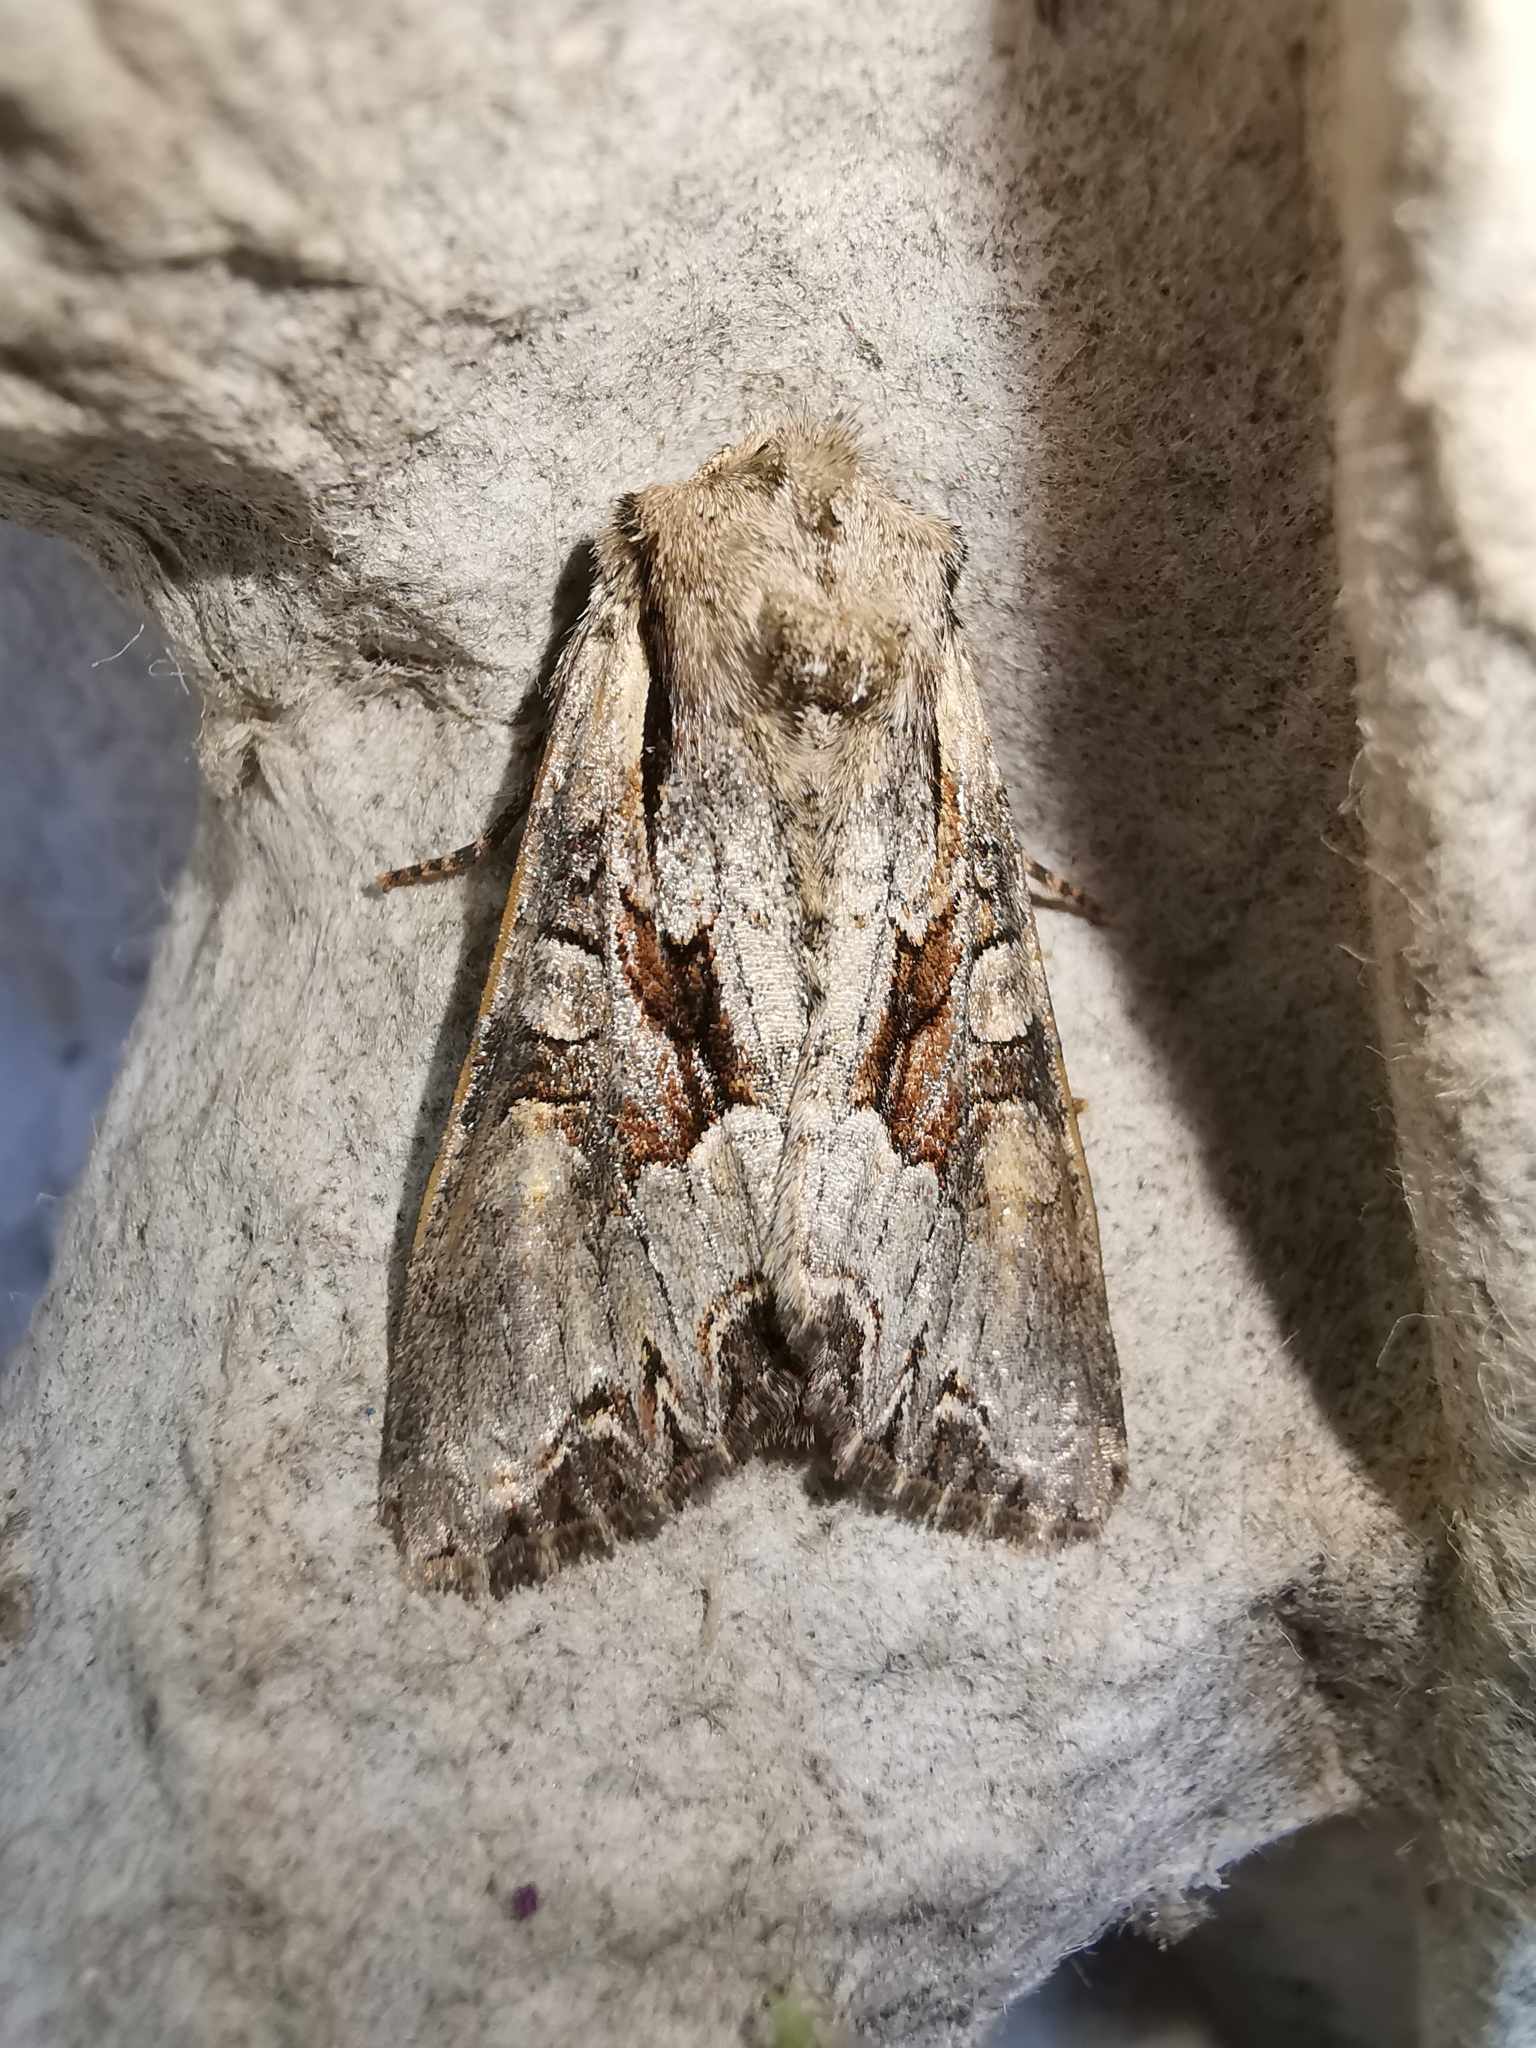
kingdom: Animalia
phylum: Arthropoda
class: Insecta
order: Lepidoptera
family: Noctuidae
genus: Lacanobia
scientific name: Lacanobia w-latinum
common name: Light brocade
